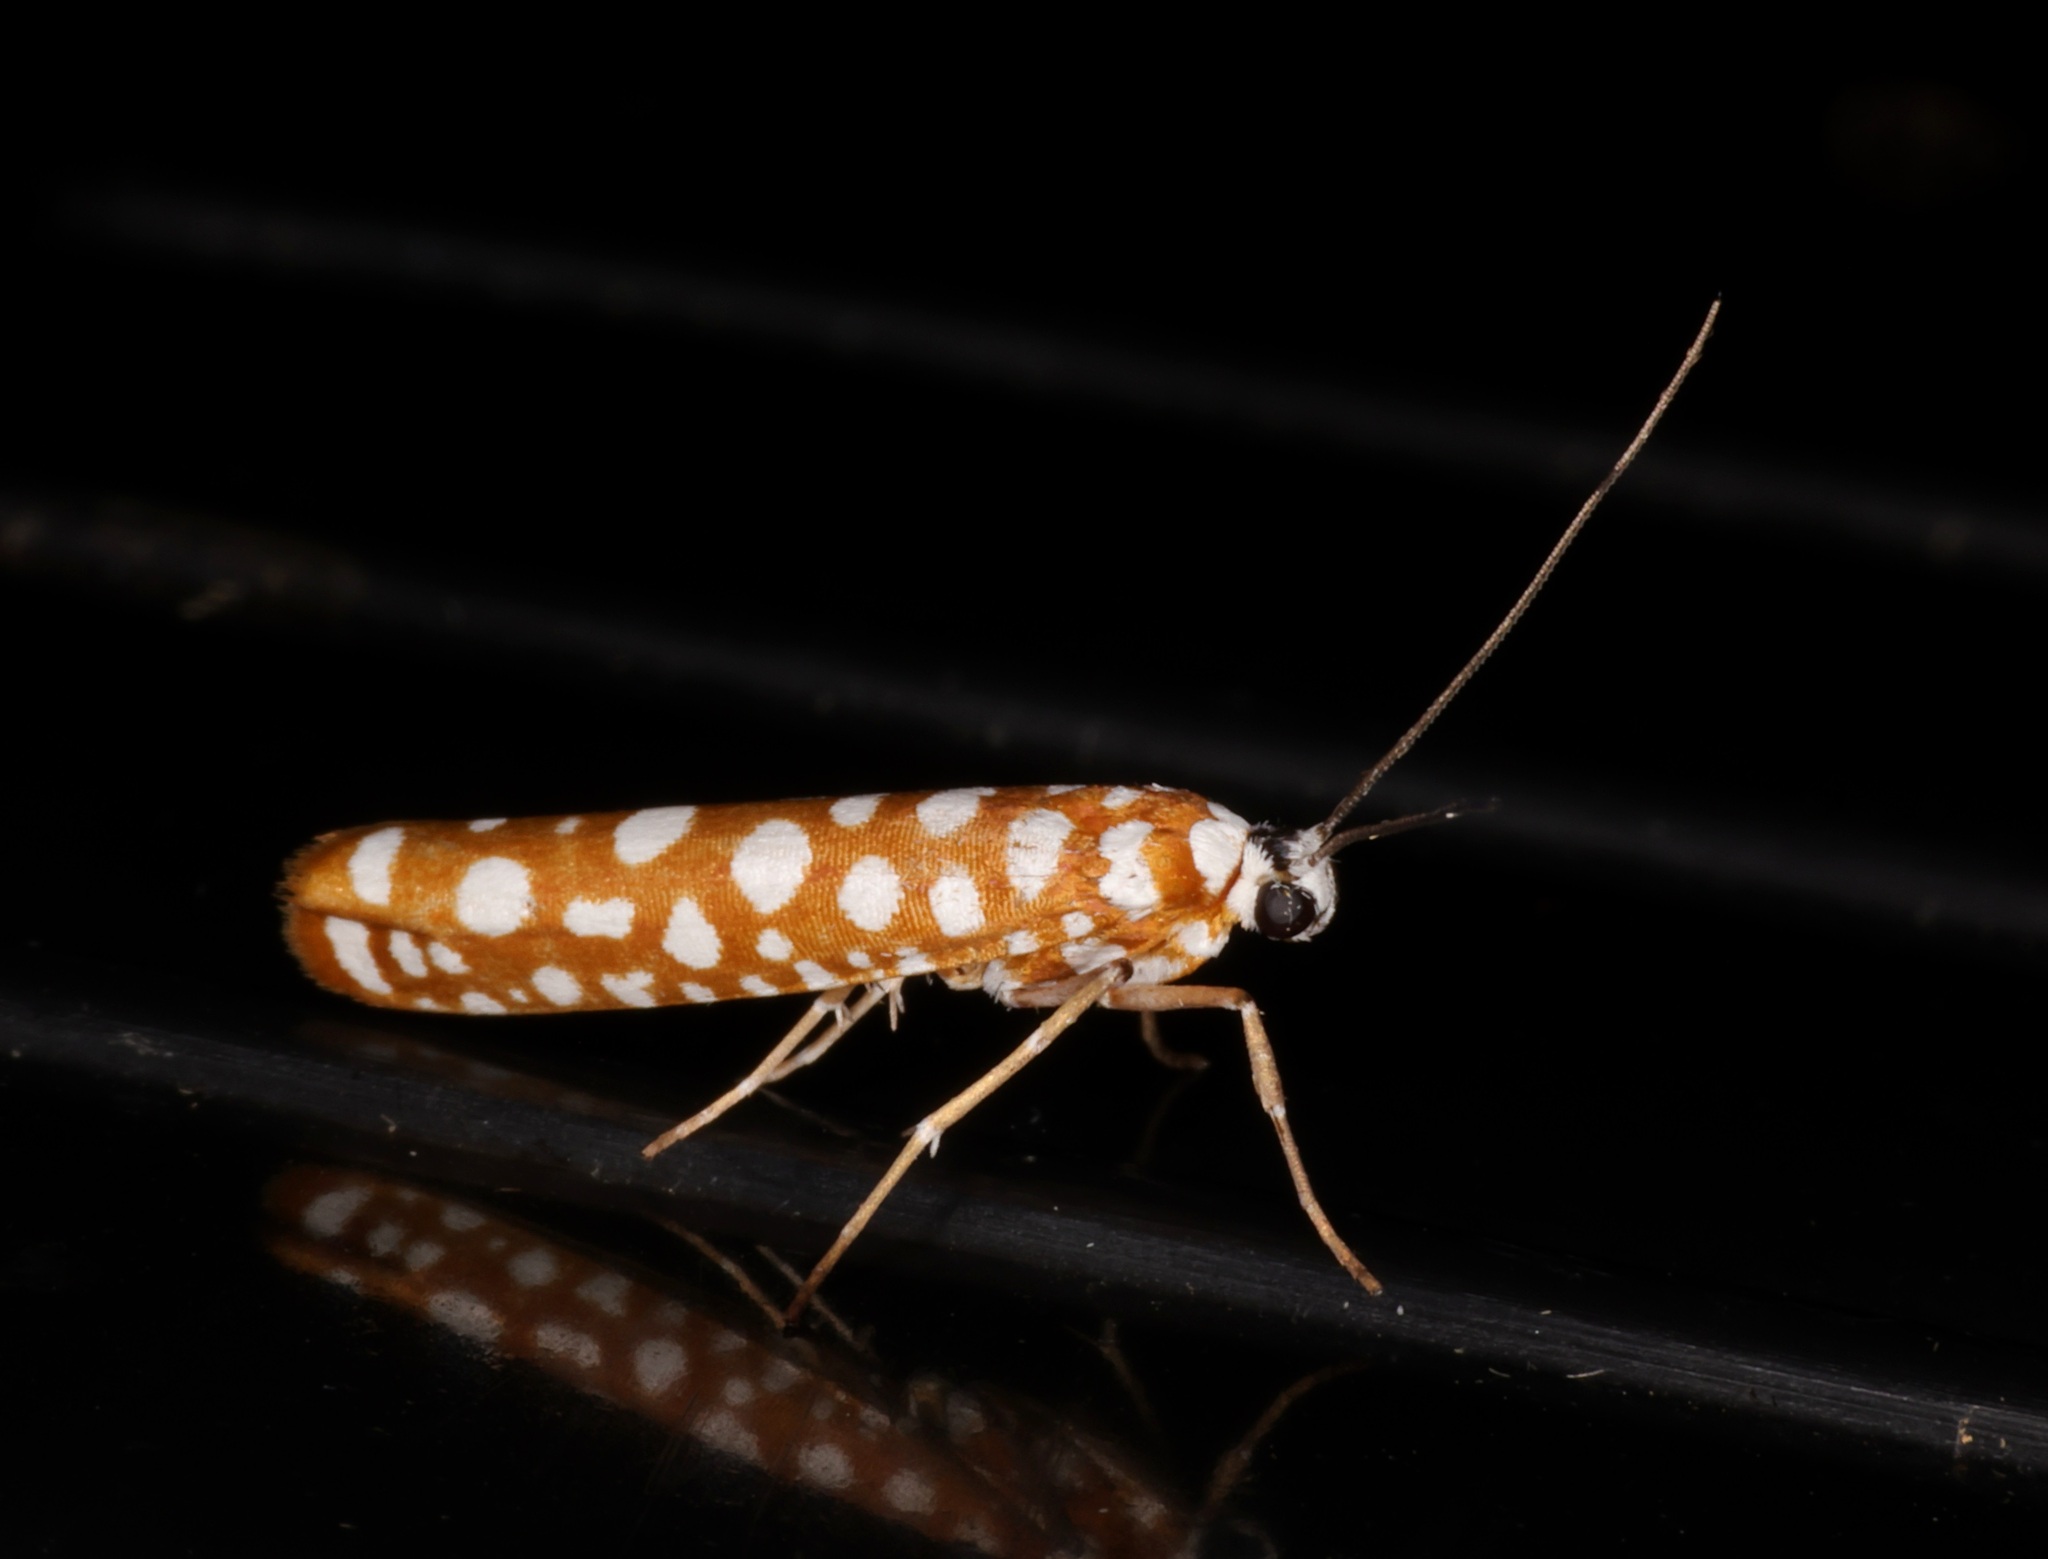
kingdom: Animalia
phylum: Arthropoda
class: Insecta
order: Lepidoptera
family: Attevidae
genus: Atteva
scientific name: Atteva wallengreni
